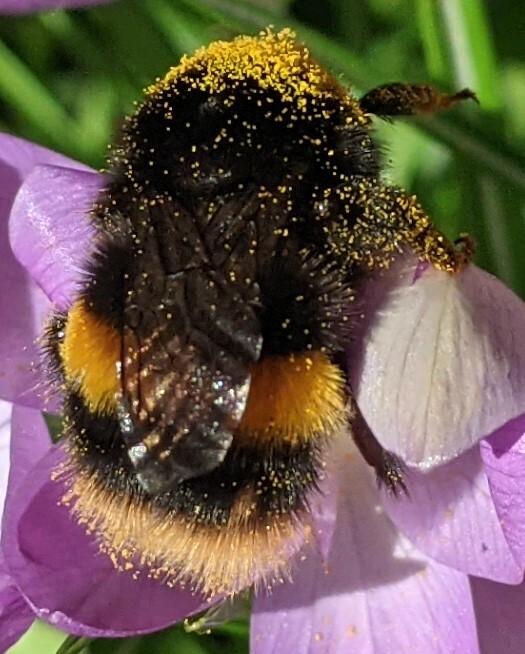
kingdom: Animalia
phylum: Arthropoda
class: Insecta
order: Hymenoptera
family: Apidae
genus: Bombus
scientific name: Bombus terrestris
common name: Buff-tailed bumblebee
